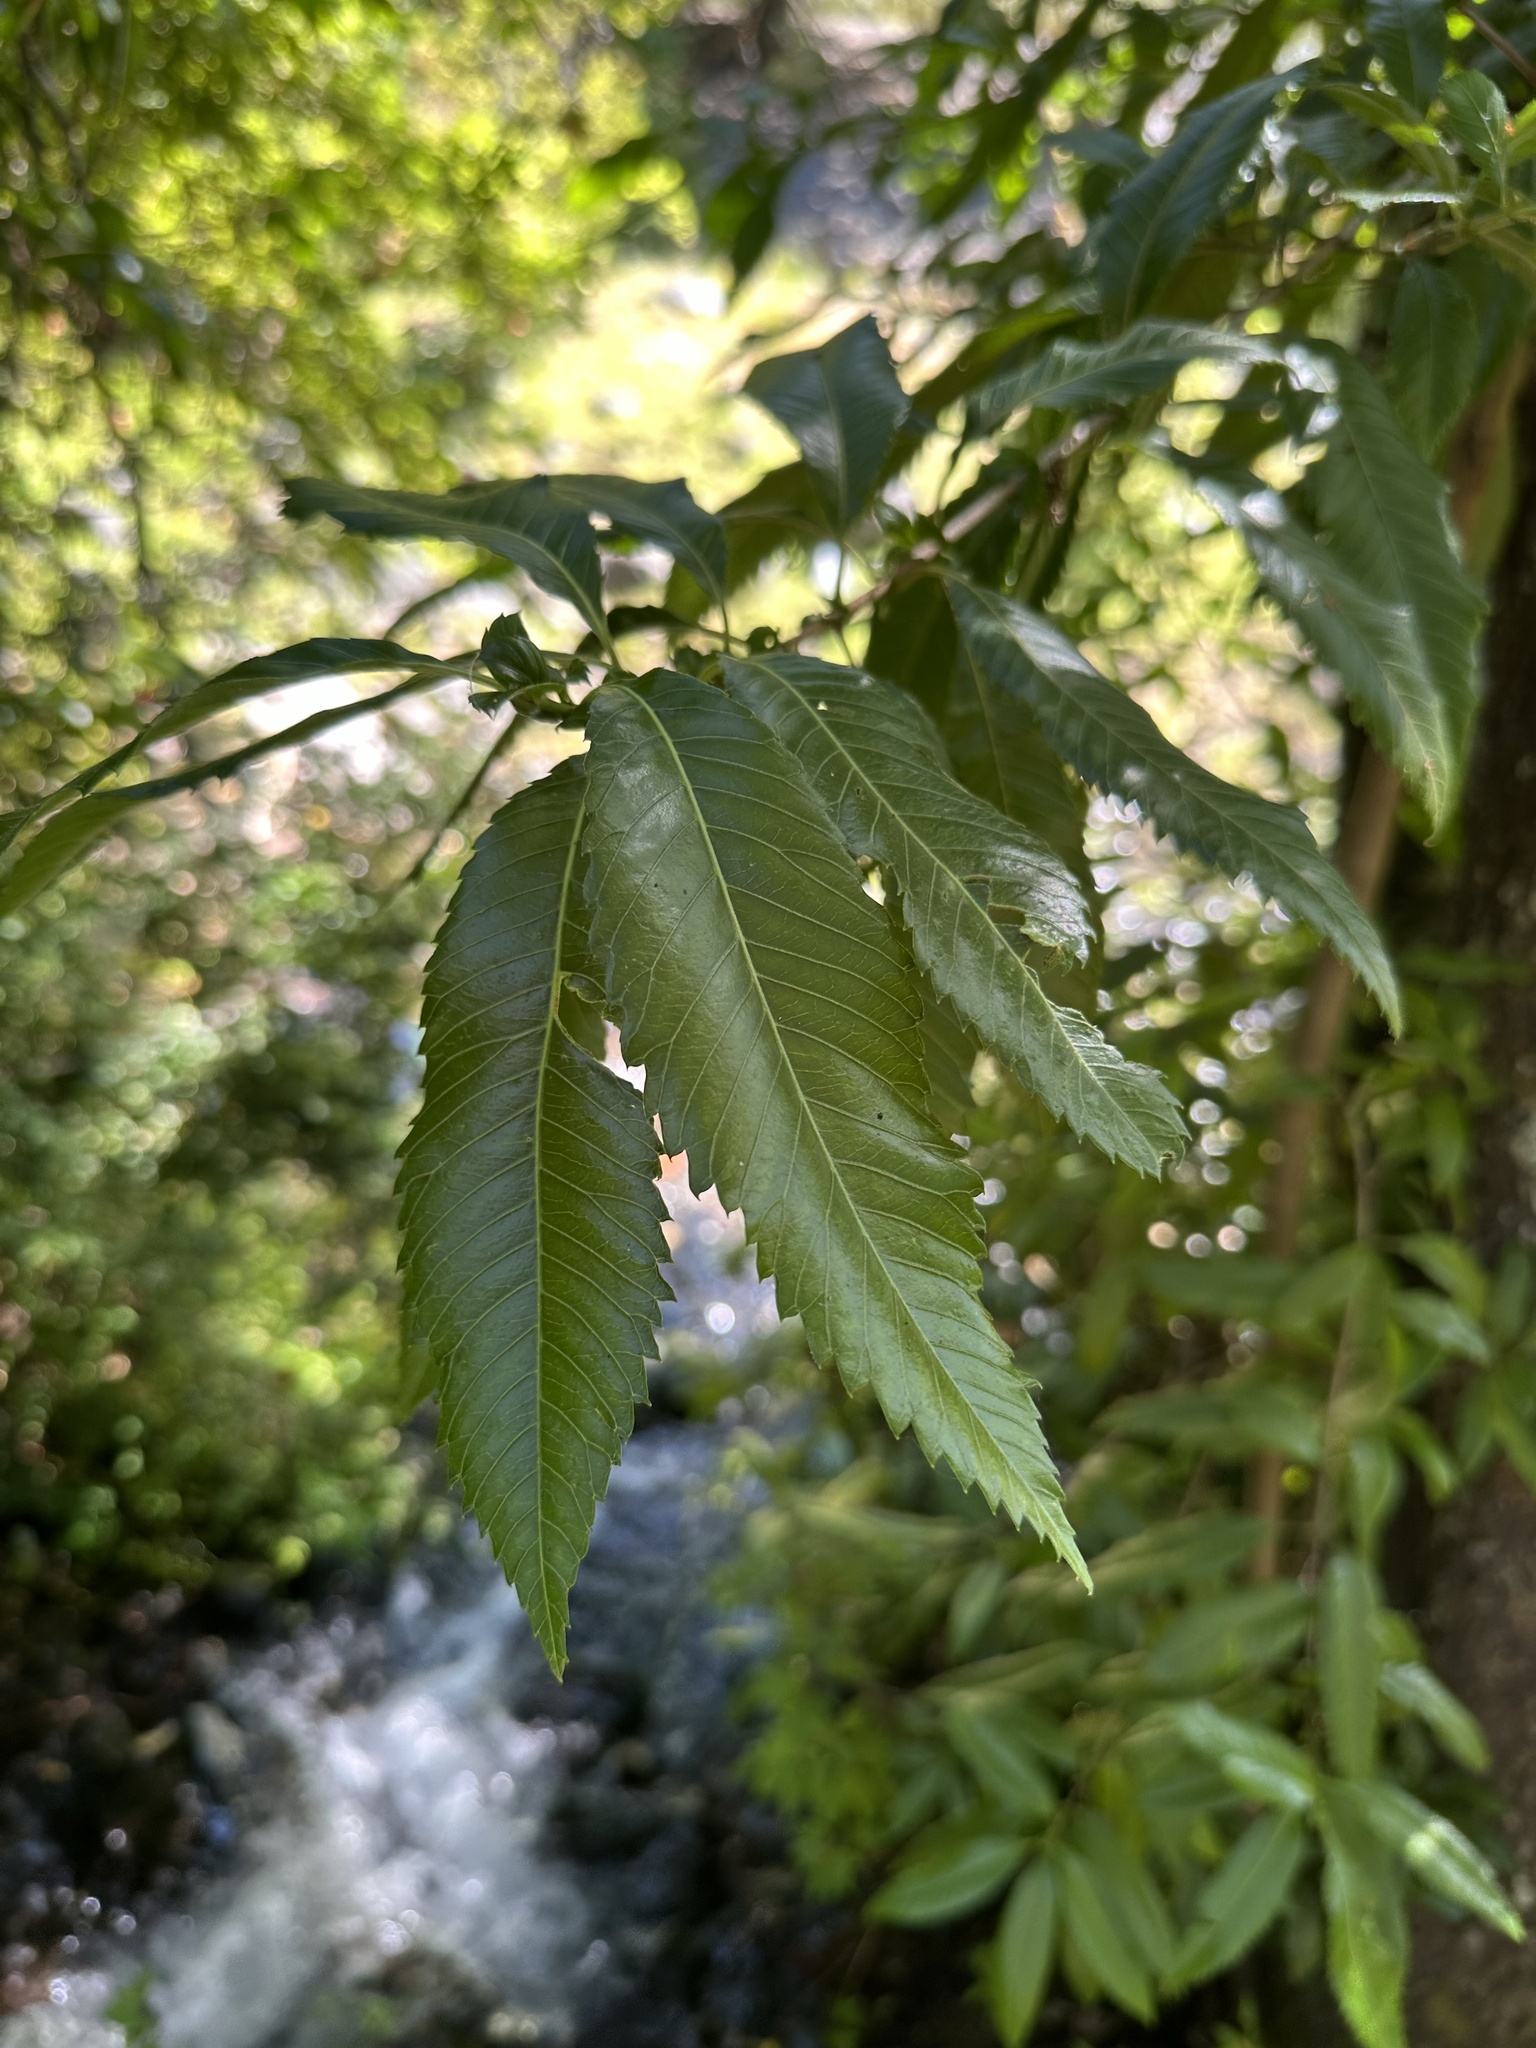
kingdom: Plantae
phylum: Tracheophyta
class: Magnoliopsida
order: Oxalidales
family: Cunoniaceae
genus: Caldcluvia
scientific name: Caldcluvia paniculata
